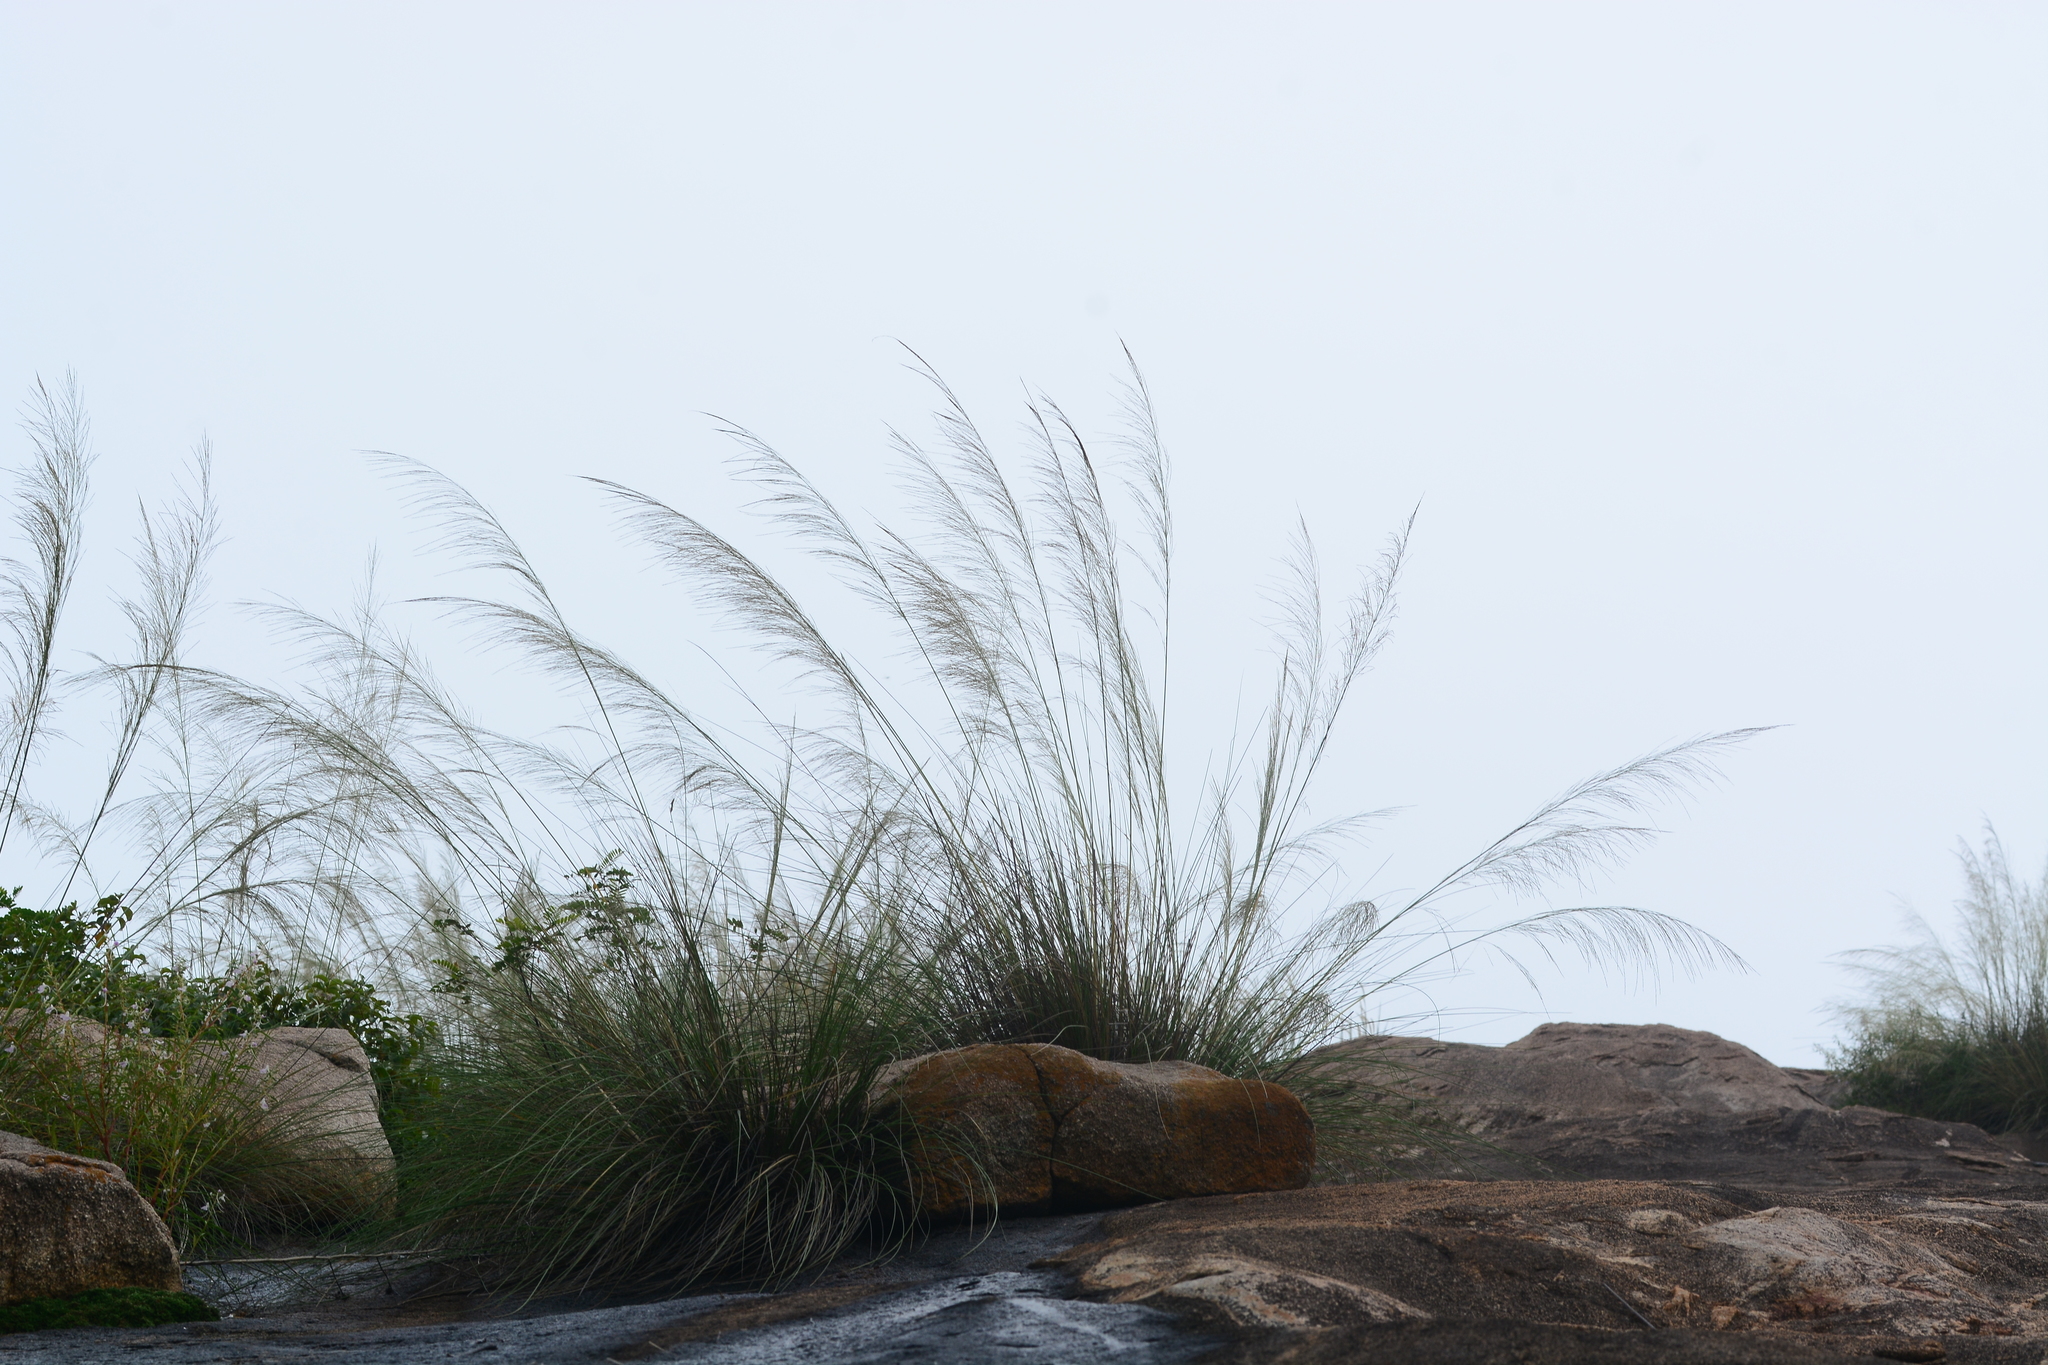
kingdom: Plantae
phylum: Tracheophyta
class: Liliopsida
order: Poales
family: Poaceae
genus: Garnotia
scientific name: Garnotia elata
